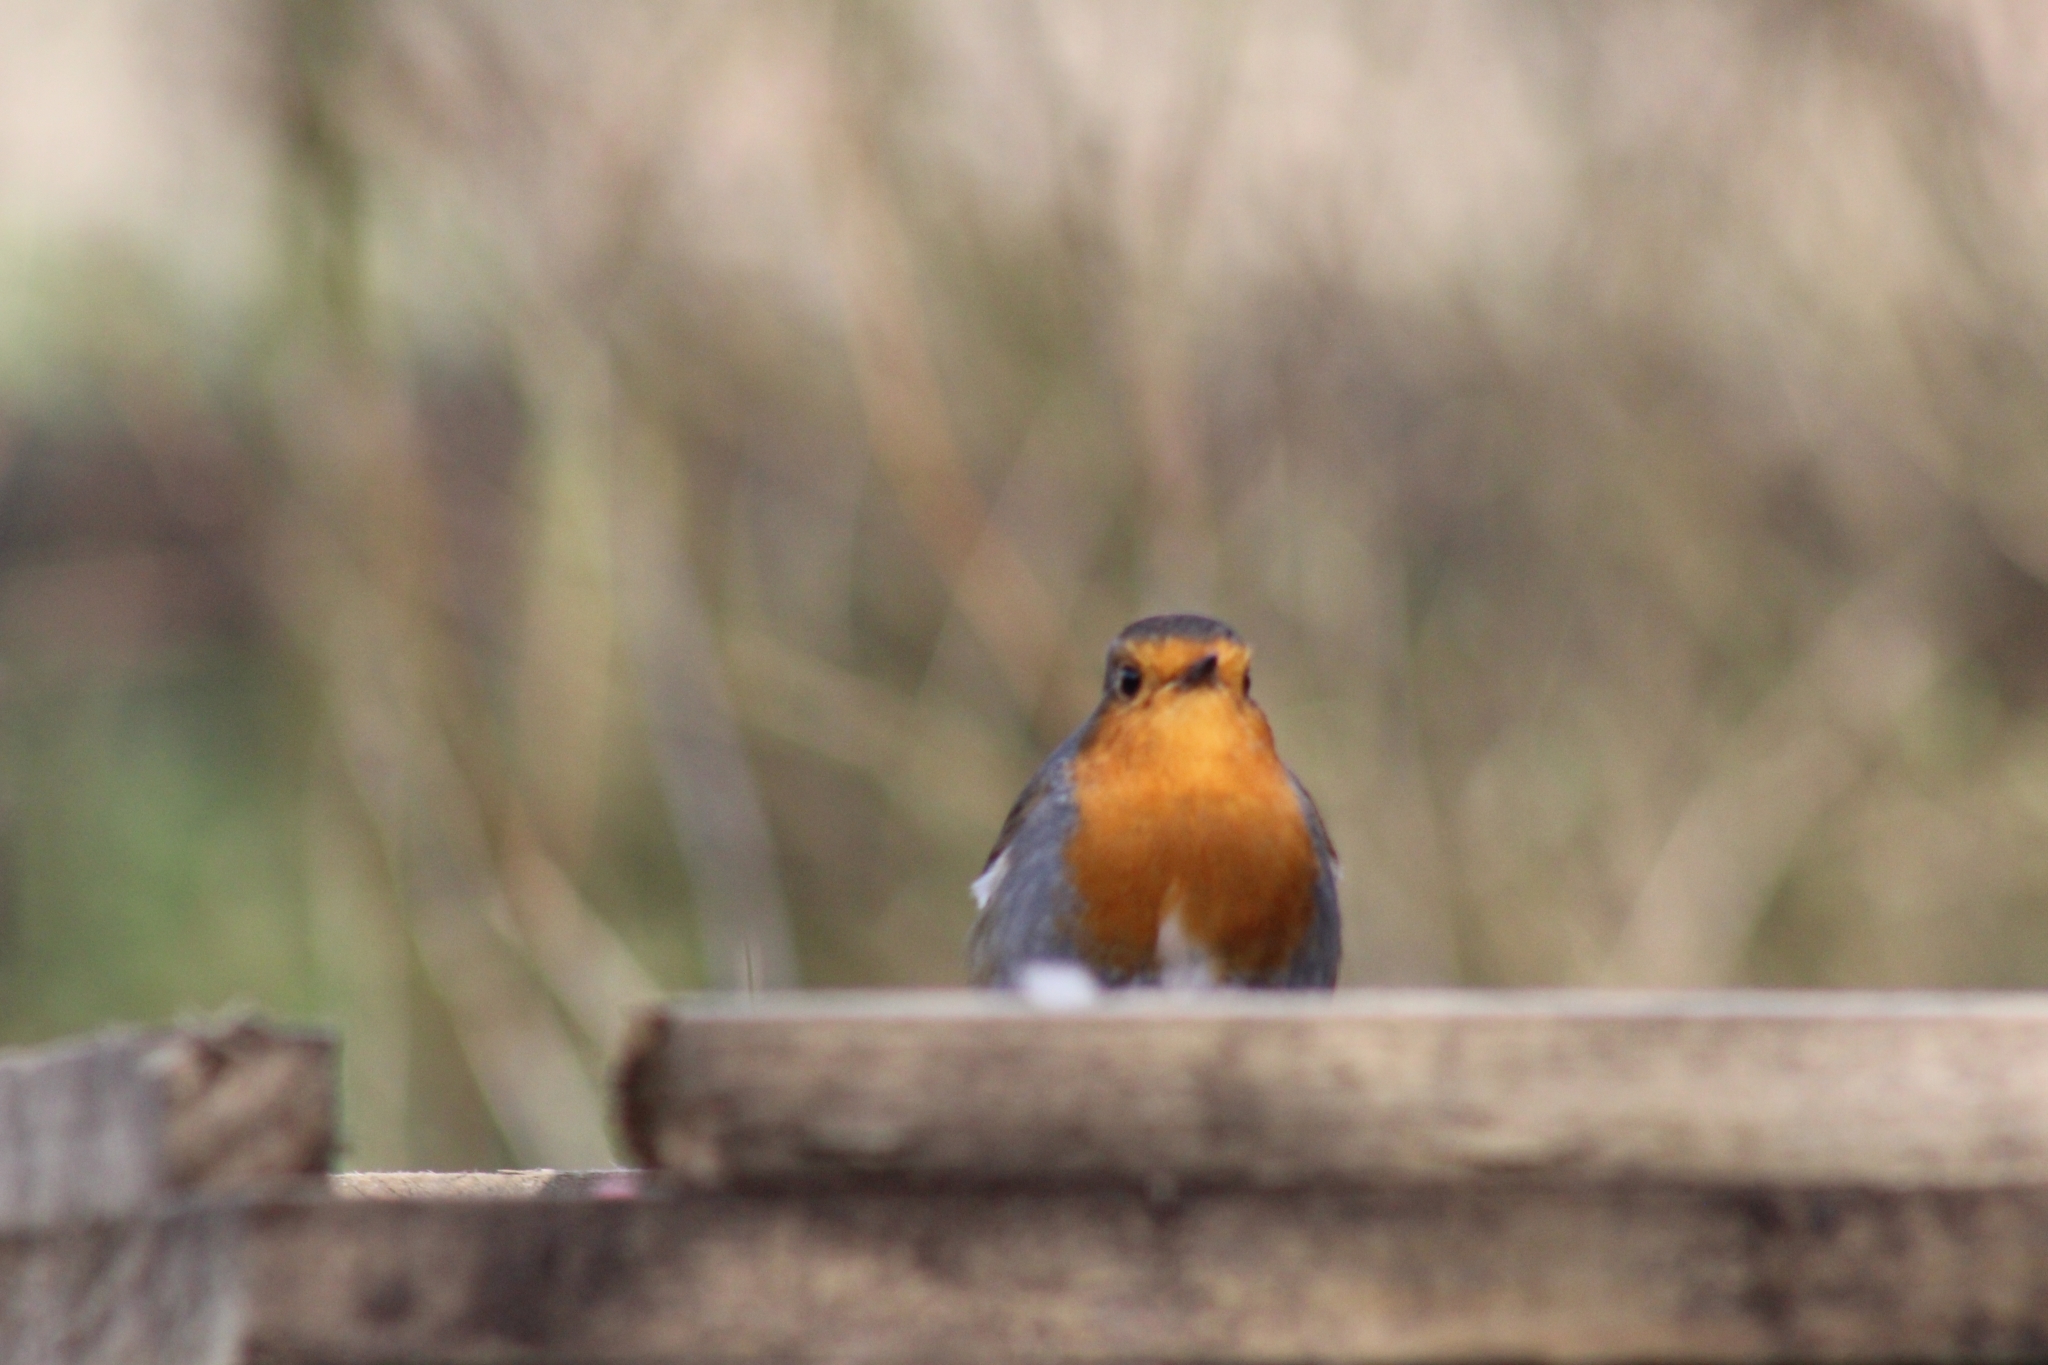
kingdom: Animalia
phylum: Chordata
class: Aves
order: Passeriformes
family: Muscicapidae
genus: Erithacus
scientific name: Erithacus rubecula
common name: European robin
